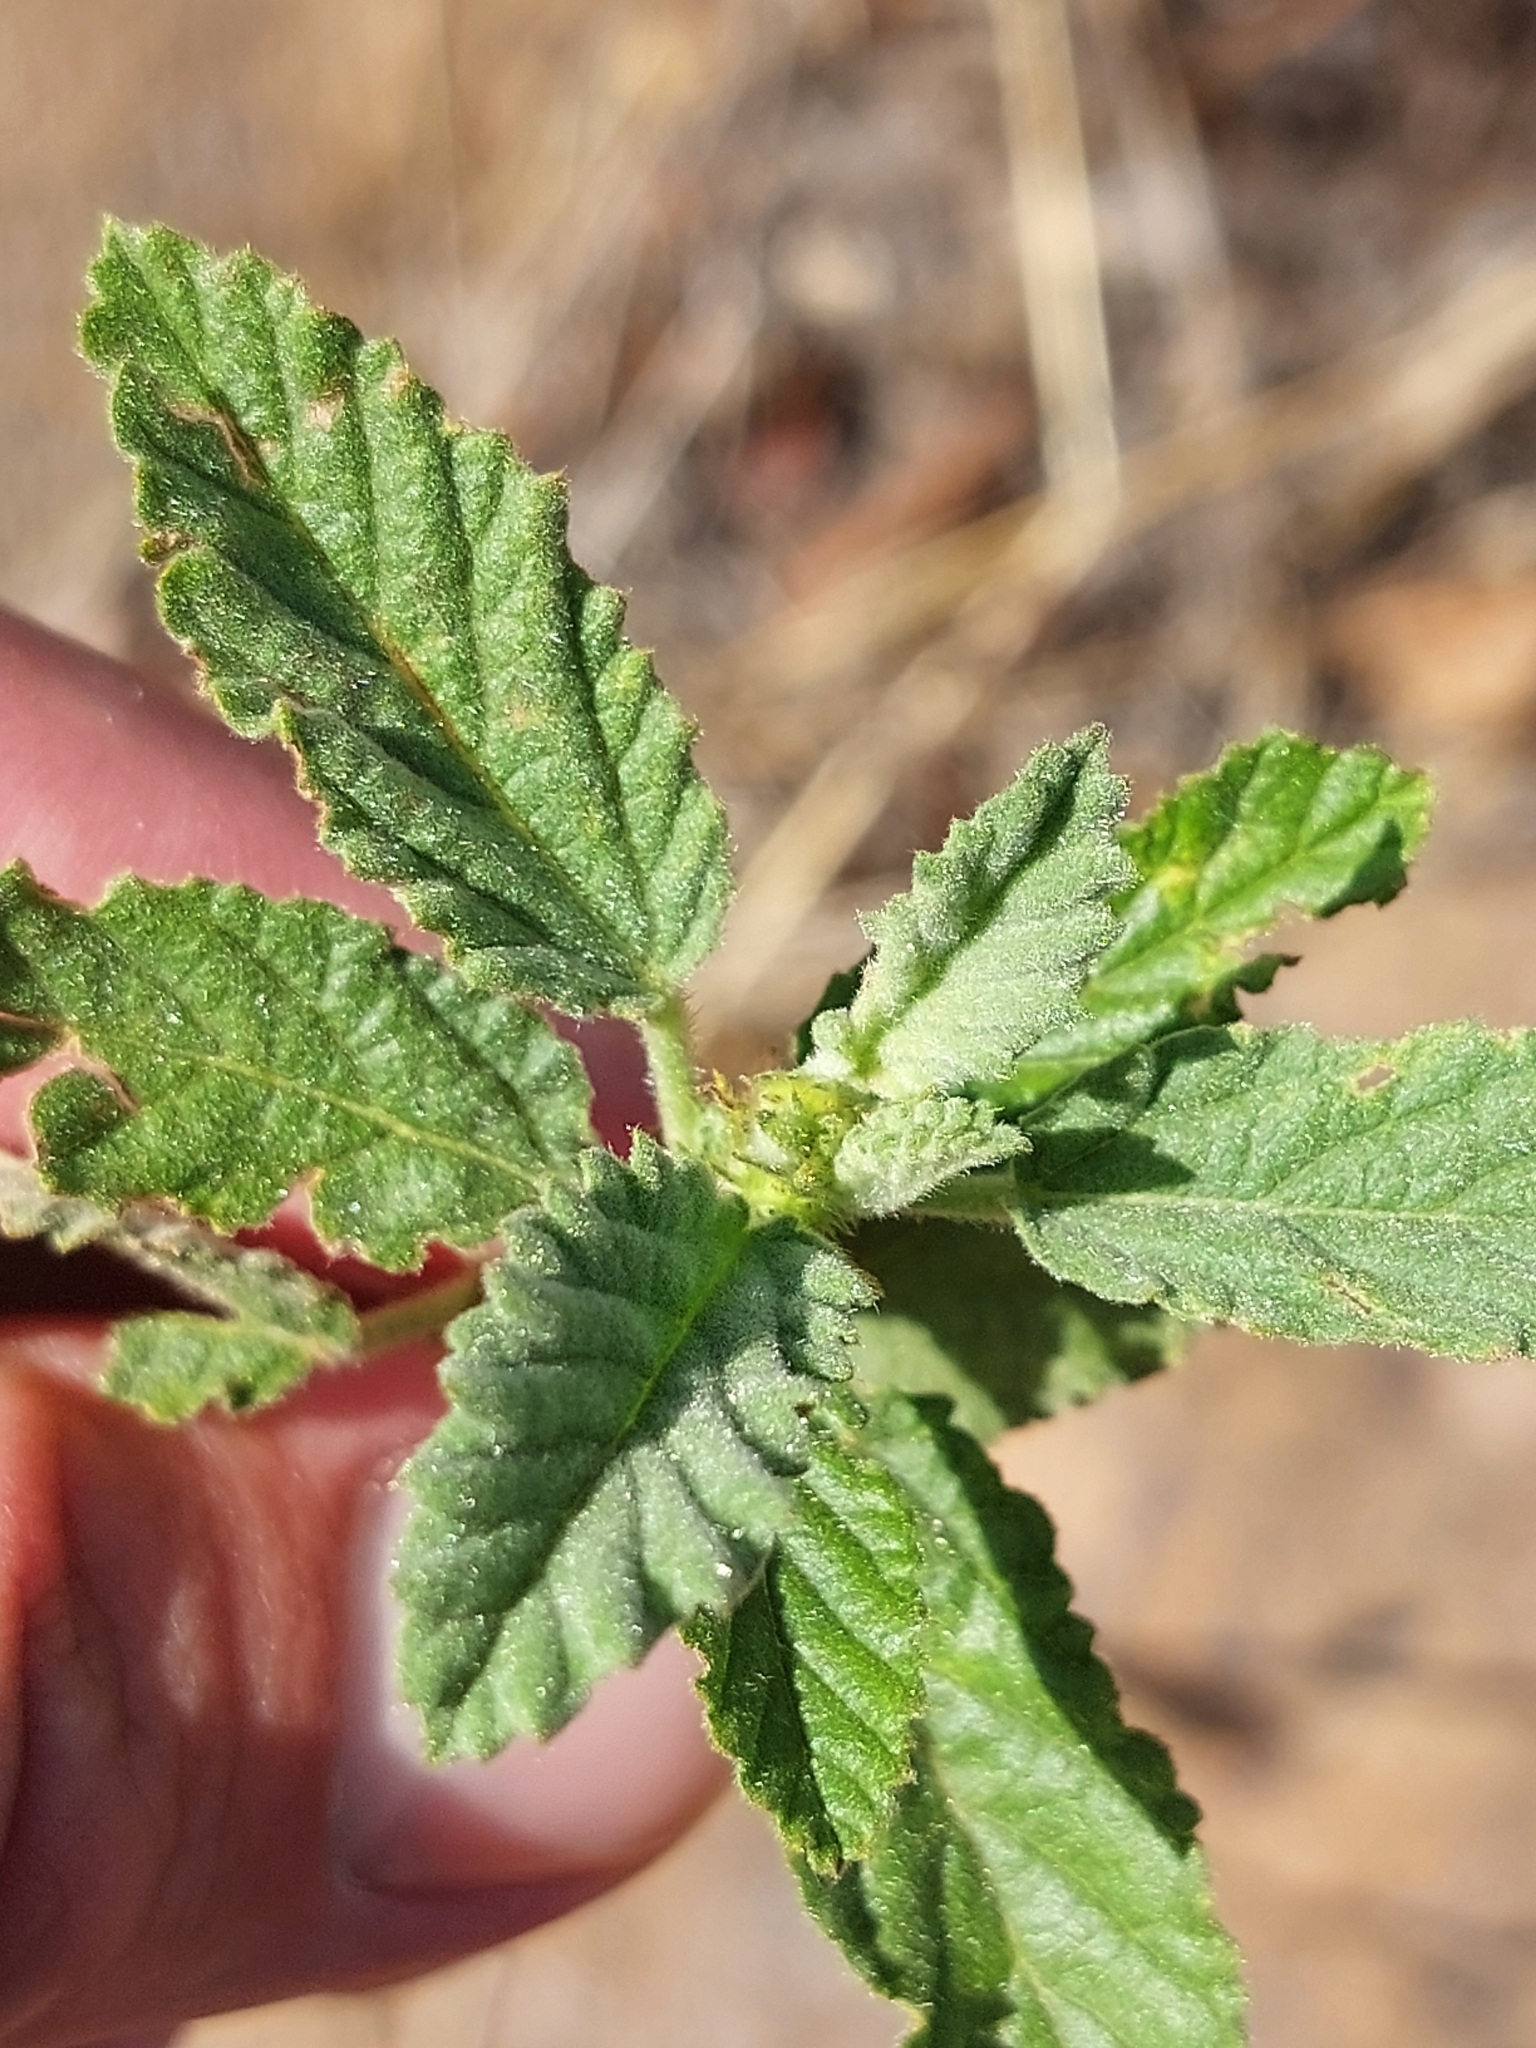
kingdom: Plantae
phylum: Tracheophyta
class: Magnoliopsida
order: Malvales
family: Malvaceae
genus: Waltheria
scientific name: Waltheria indica
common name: Leather-coat
